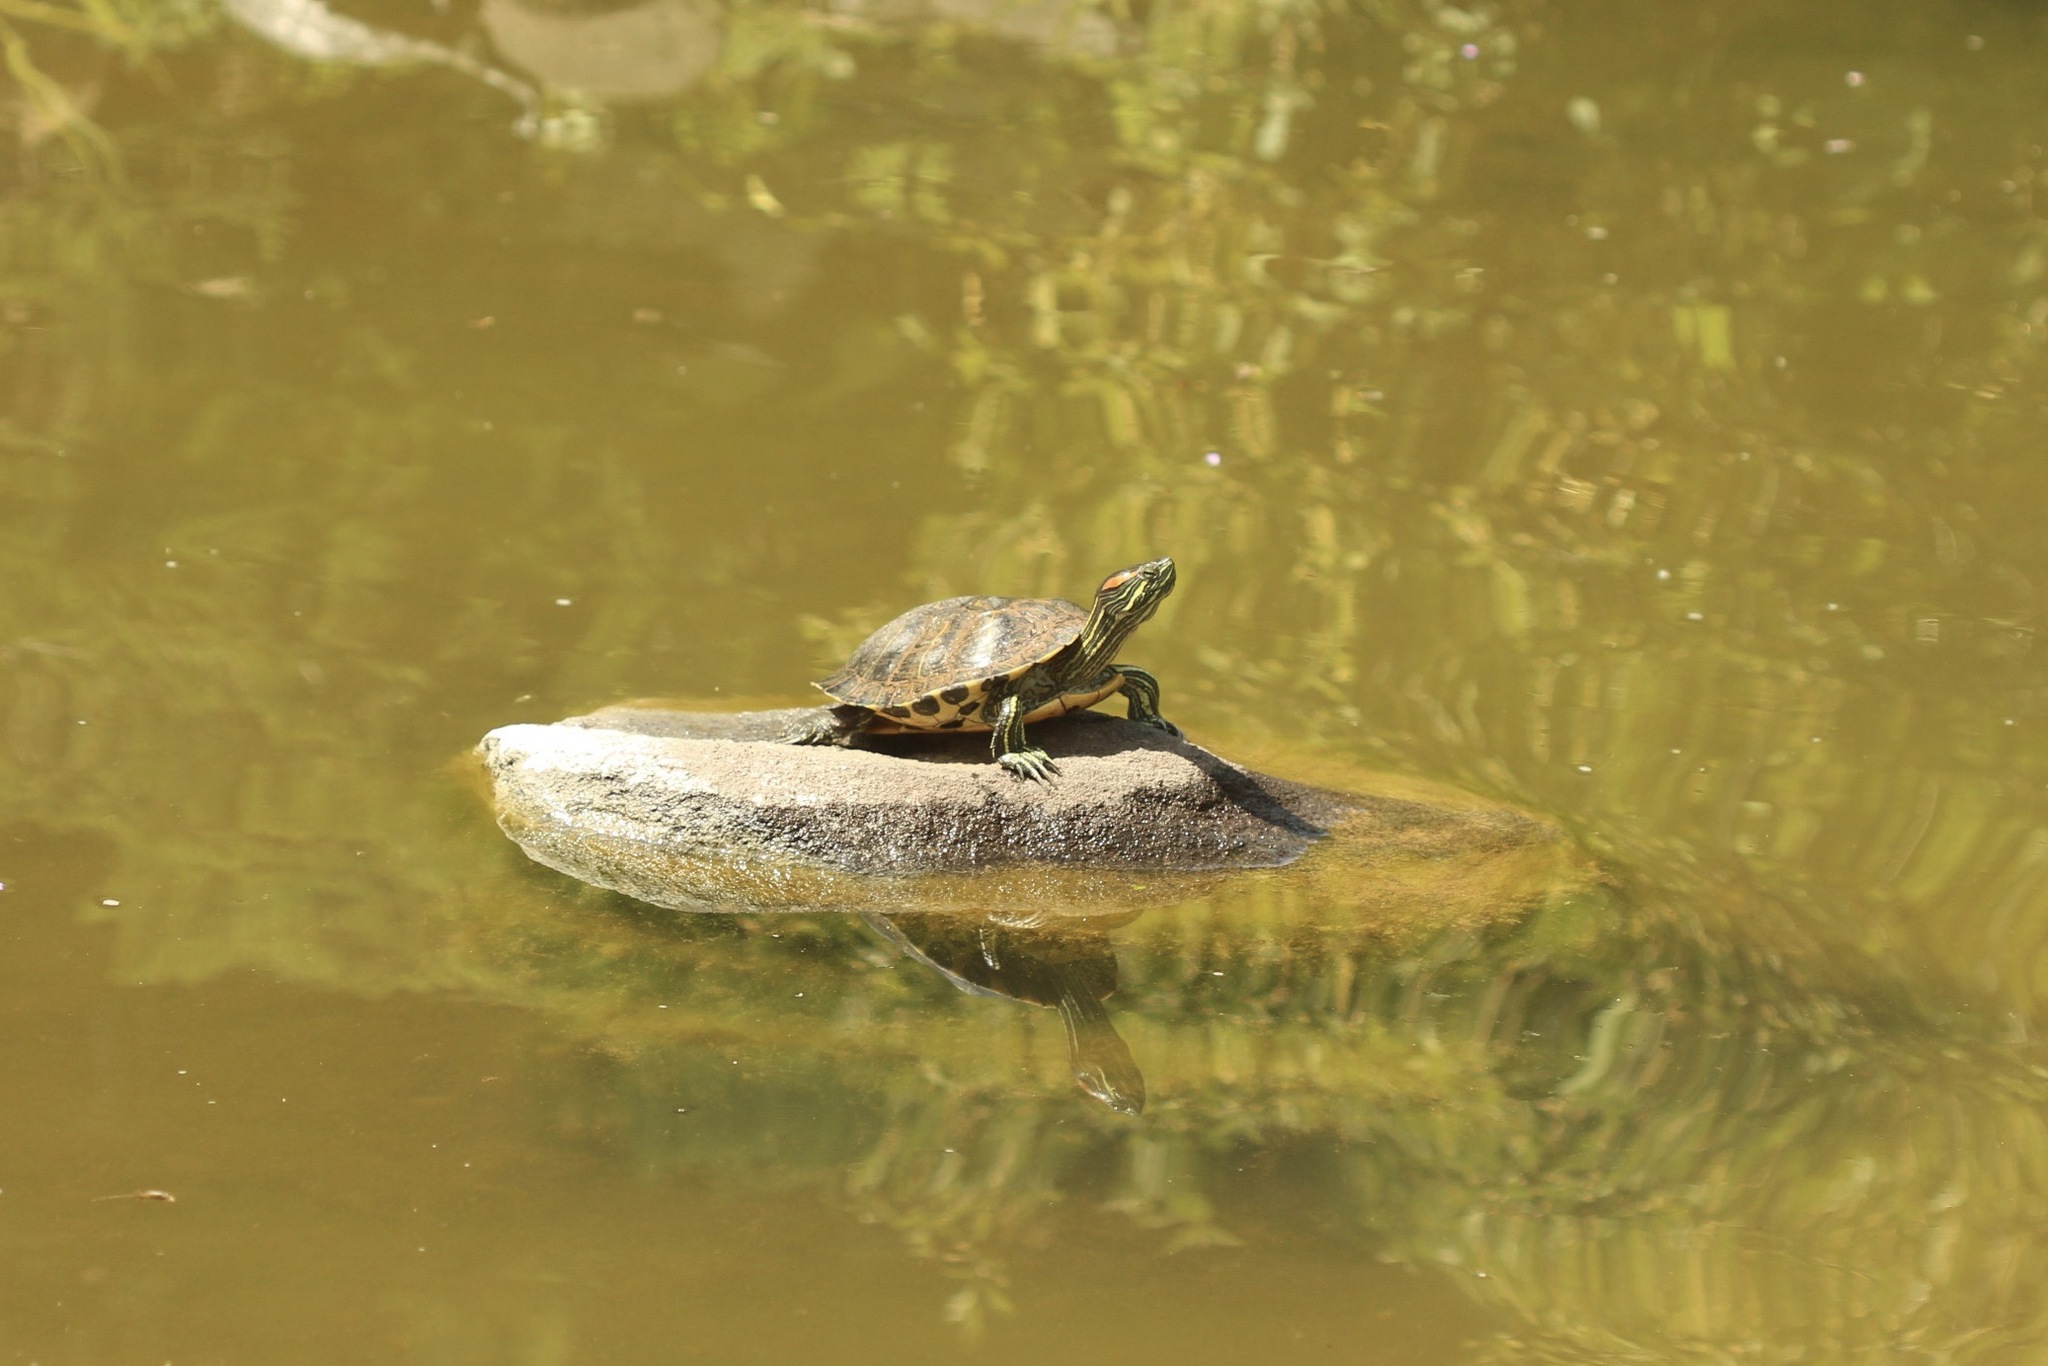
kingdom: Animalia
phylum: Chordata
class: Testudines
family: Emydidae
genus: Trachemys
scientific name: Trachemys scripta
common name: Slider
